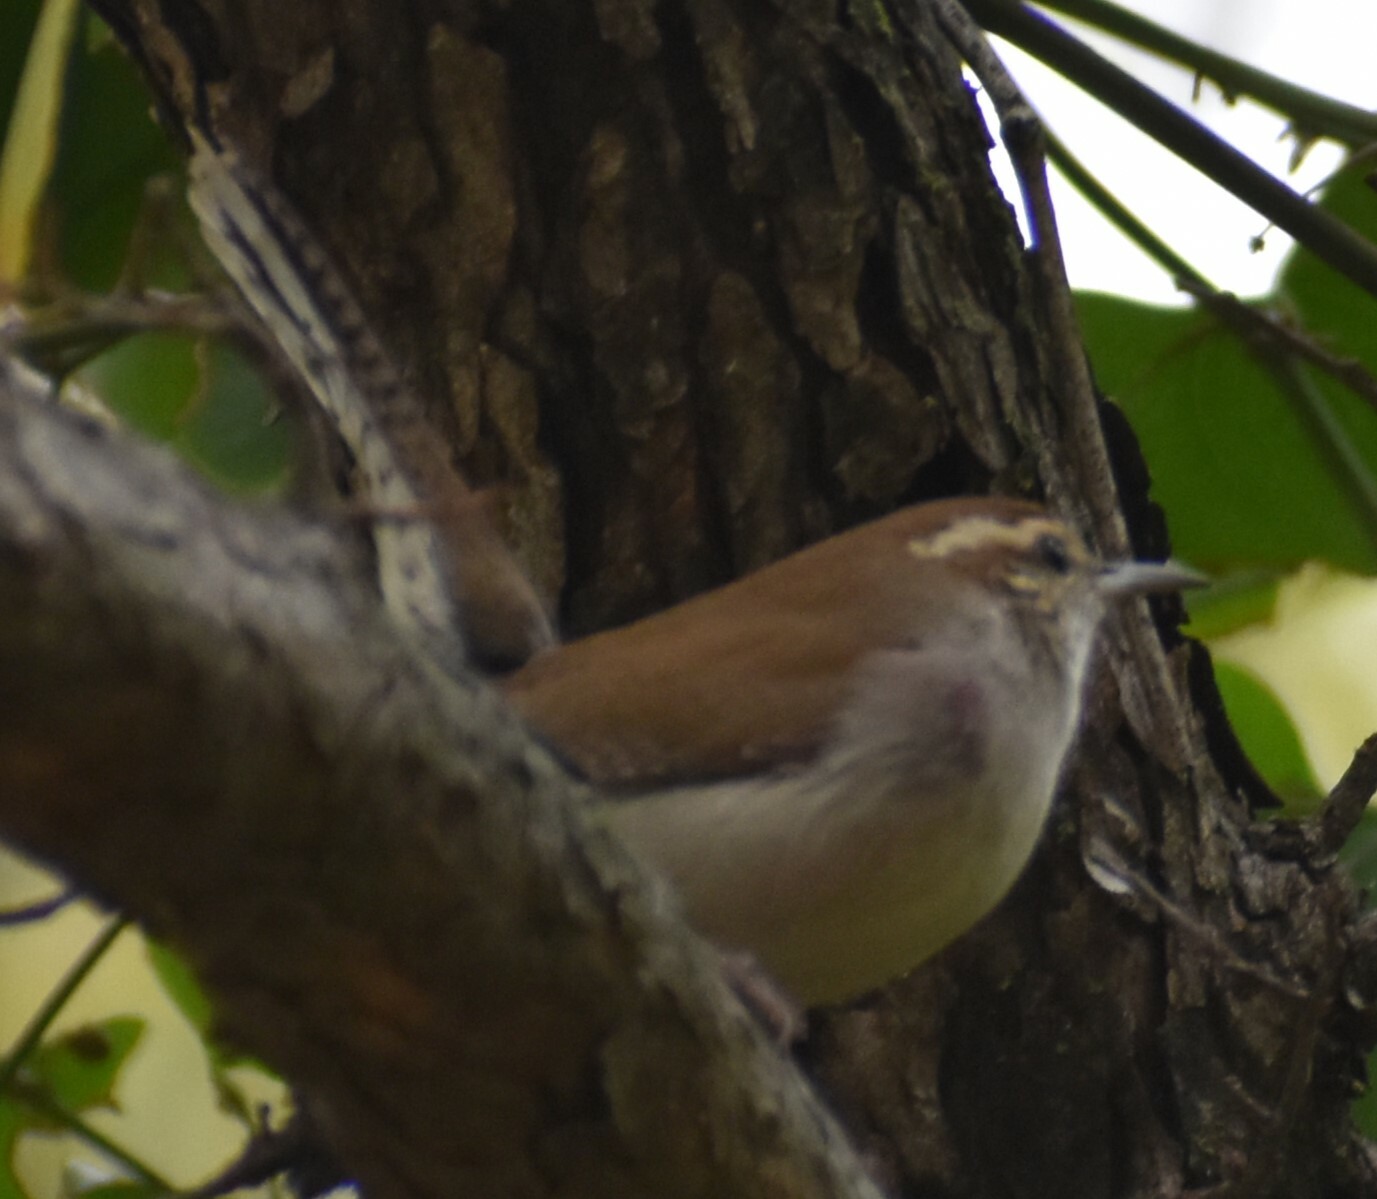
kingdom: Animalia
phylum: Chordata
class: Aves
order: Passeriformes
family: Troglodytidae
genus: Thryomanes
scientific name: Thryomanes bewickii
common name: Bewick's wren
